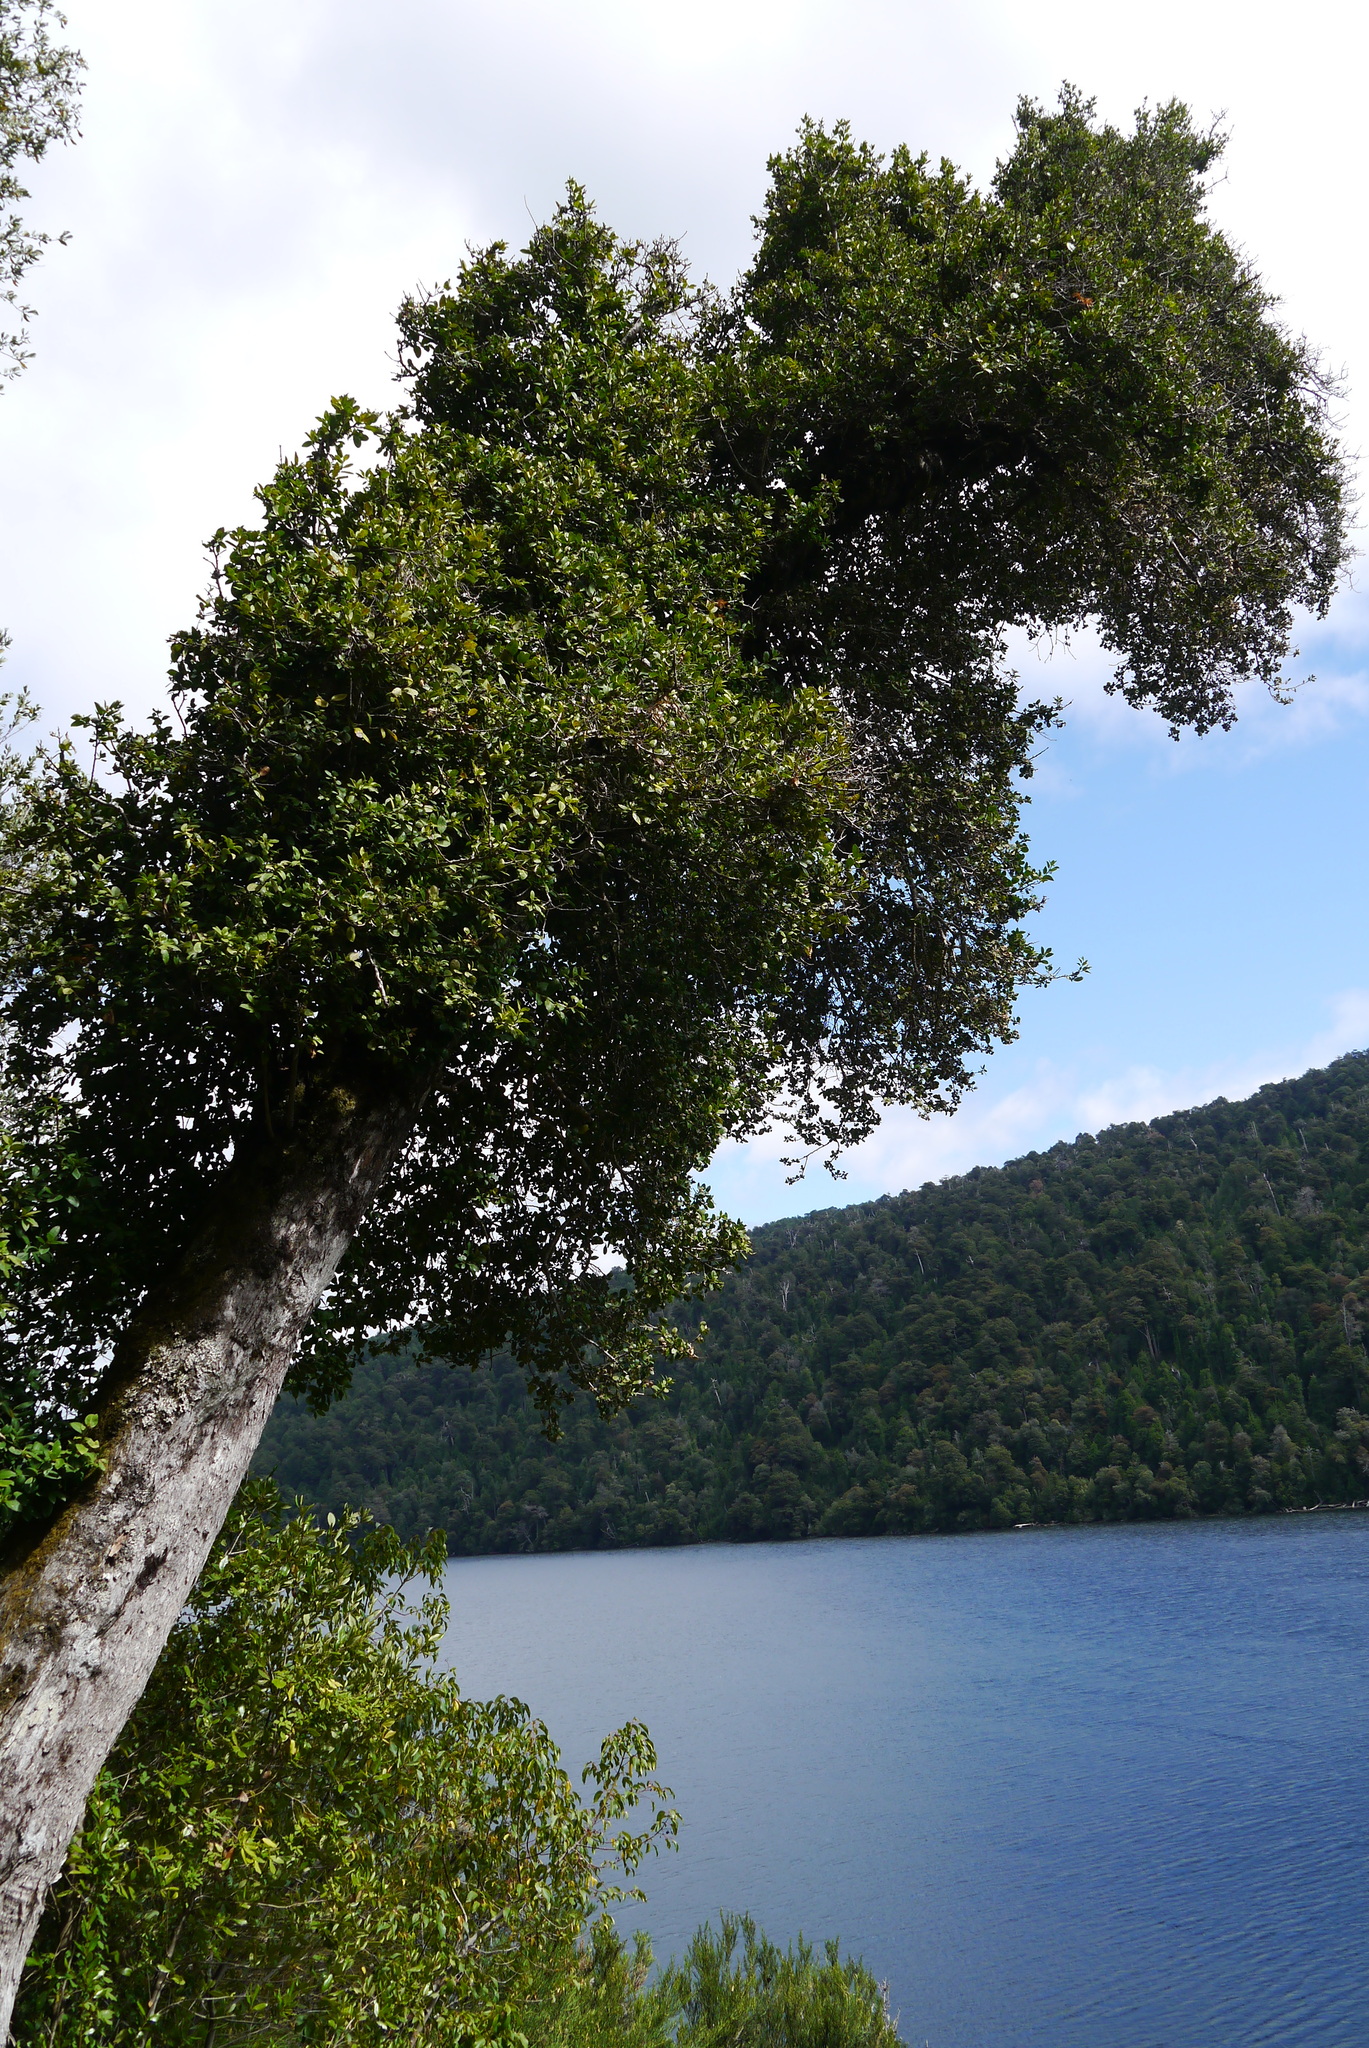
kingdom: Plantae
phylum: Tracheophyta
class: Magnoliopsida
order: Asterales
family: Asteraceae
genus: Archidasyphyllum
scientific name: Archidasyphyllum diacanthoides
